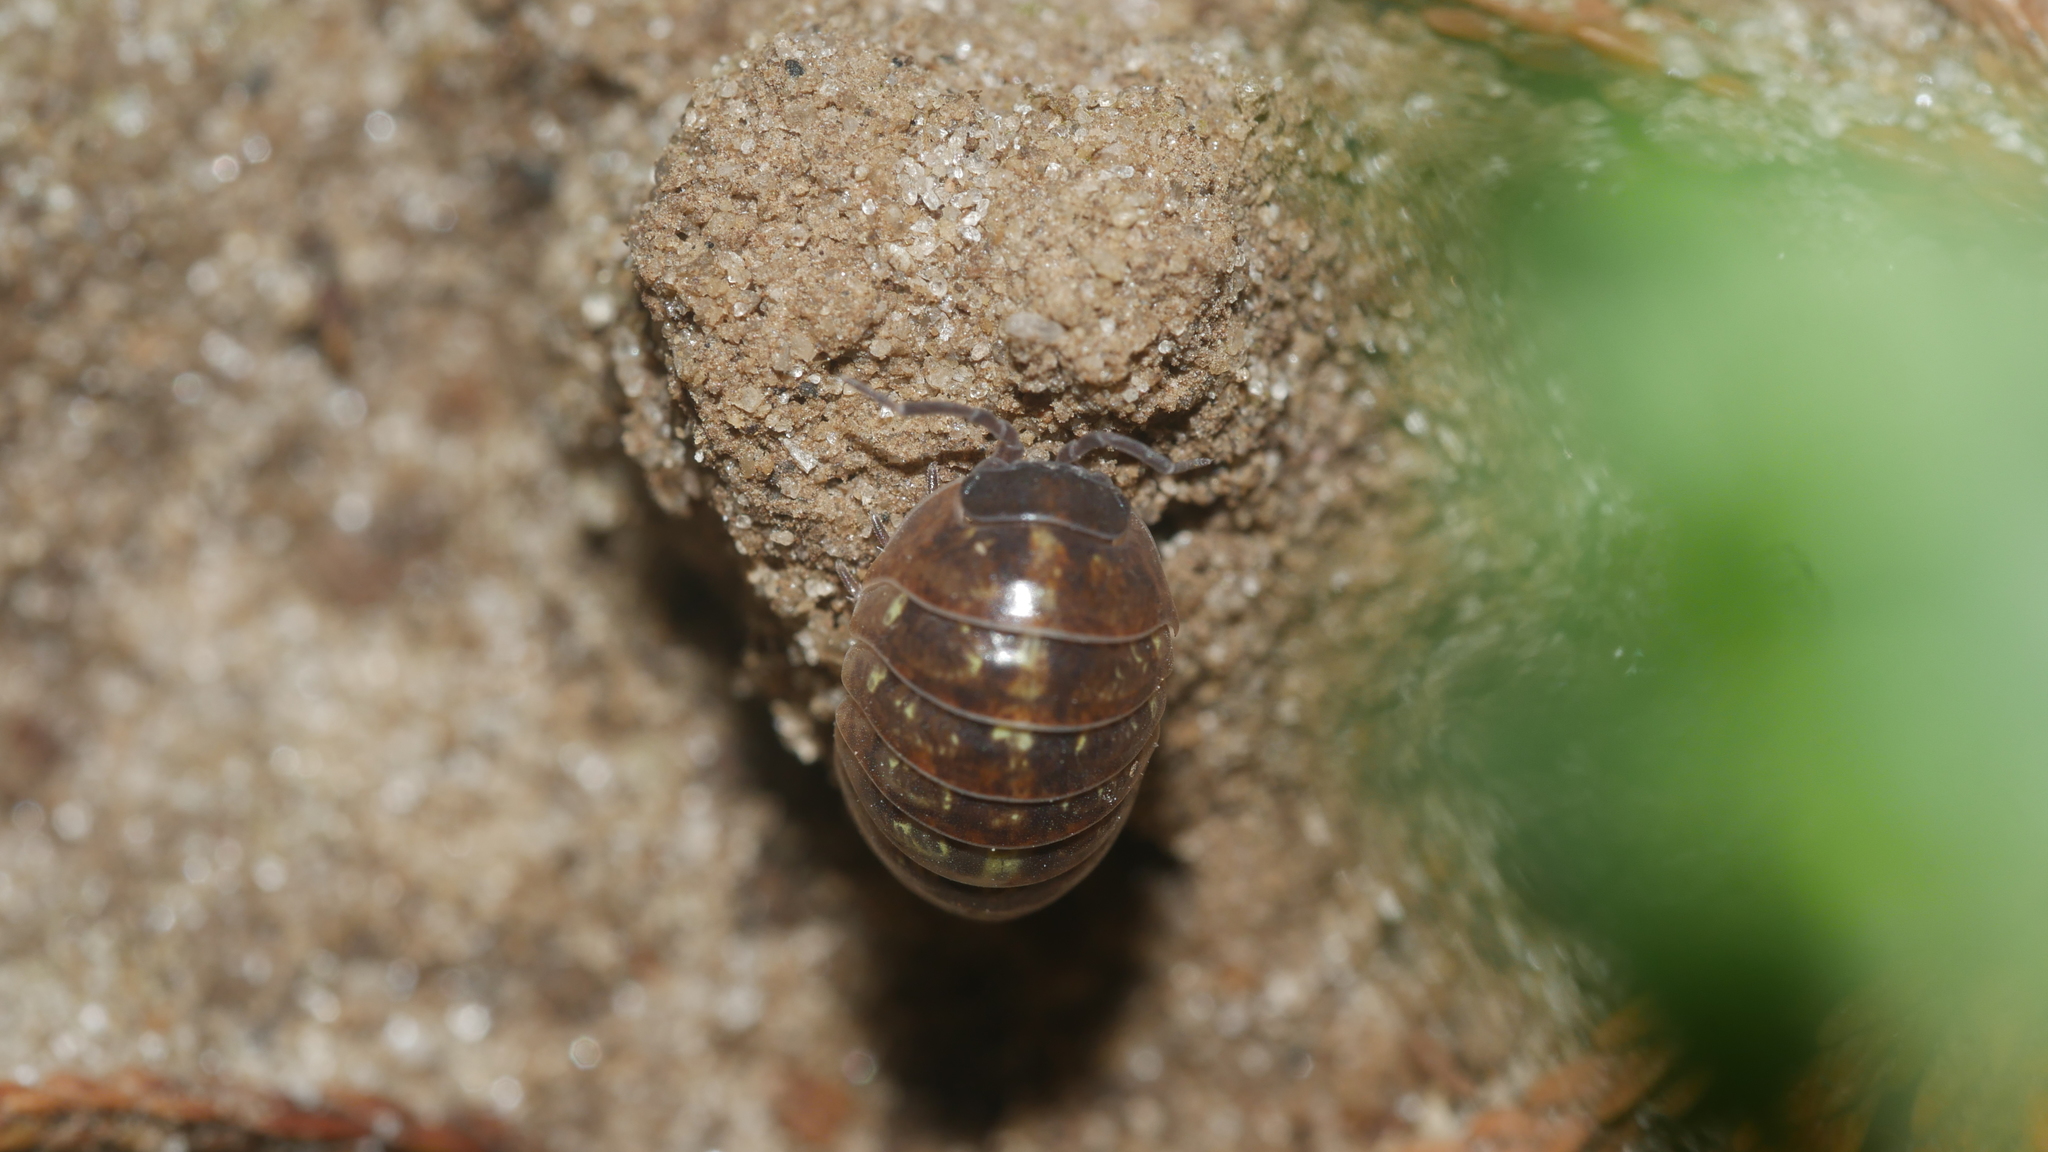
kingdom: Animalia
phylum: Arthropoda
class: Malacostraca
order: Isopoda
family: Armadillidiidae
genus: Armadillidium
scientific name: Armadillidium vulgare
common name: Common pill woodlouse
